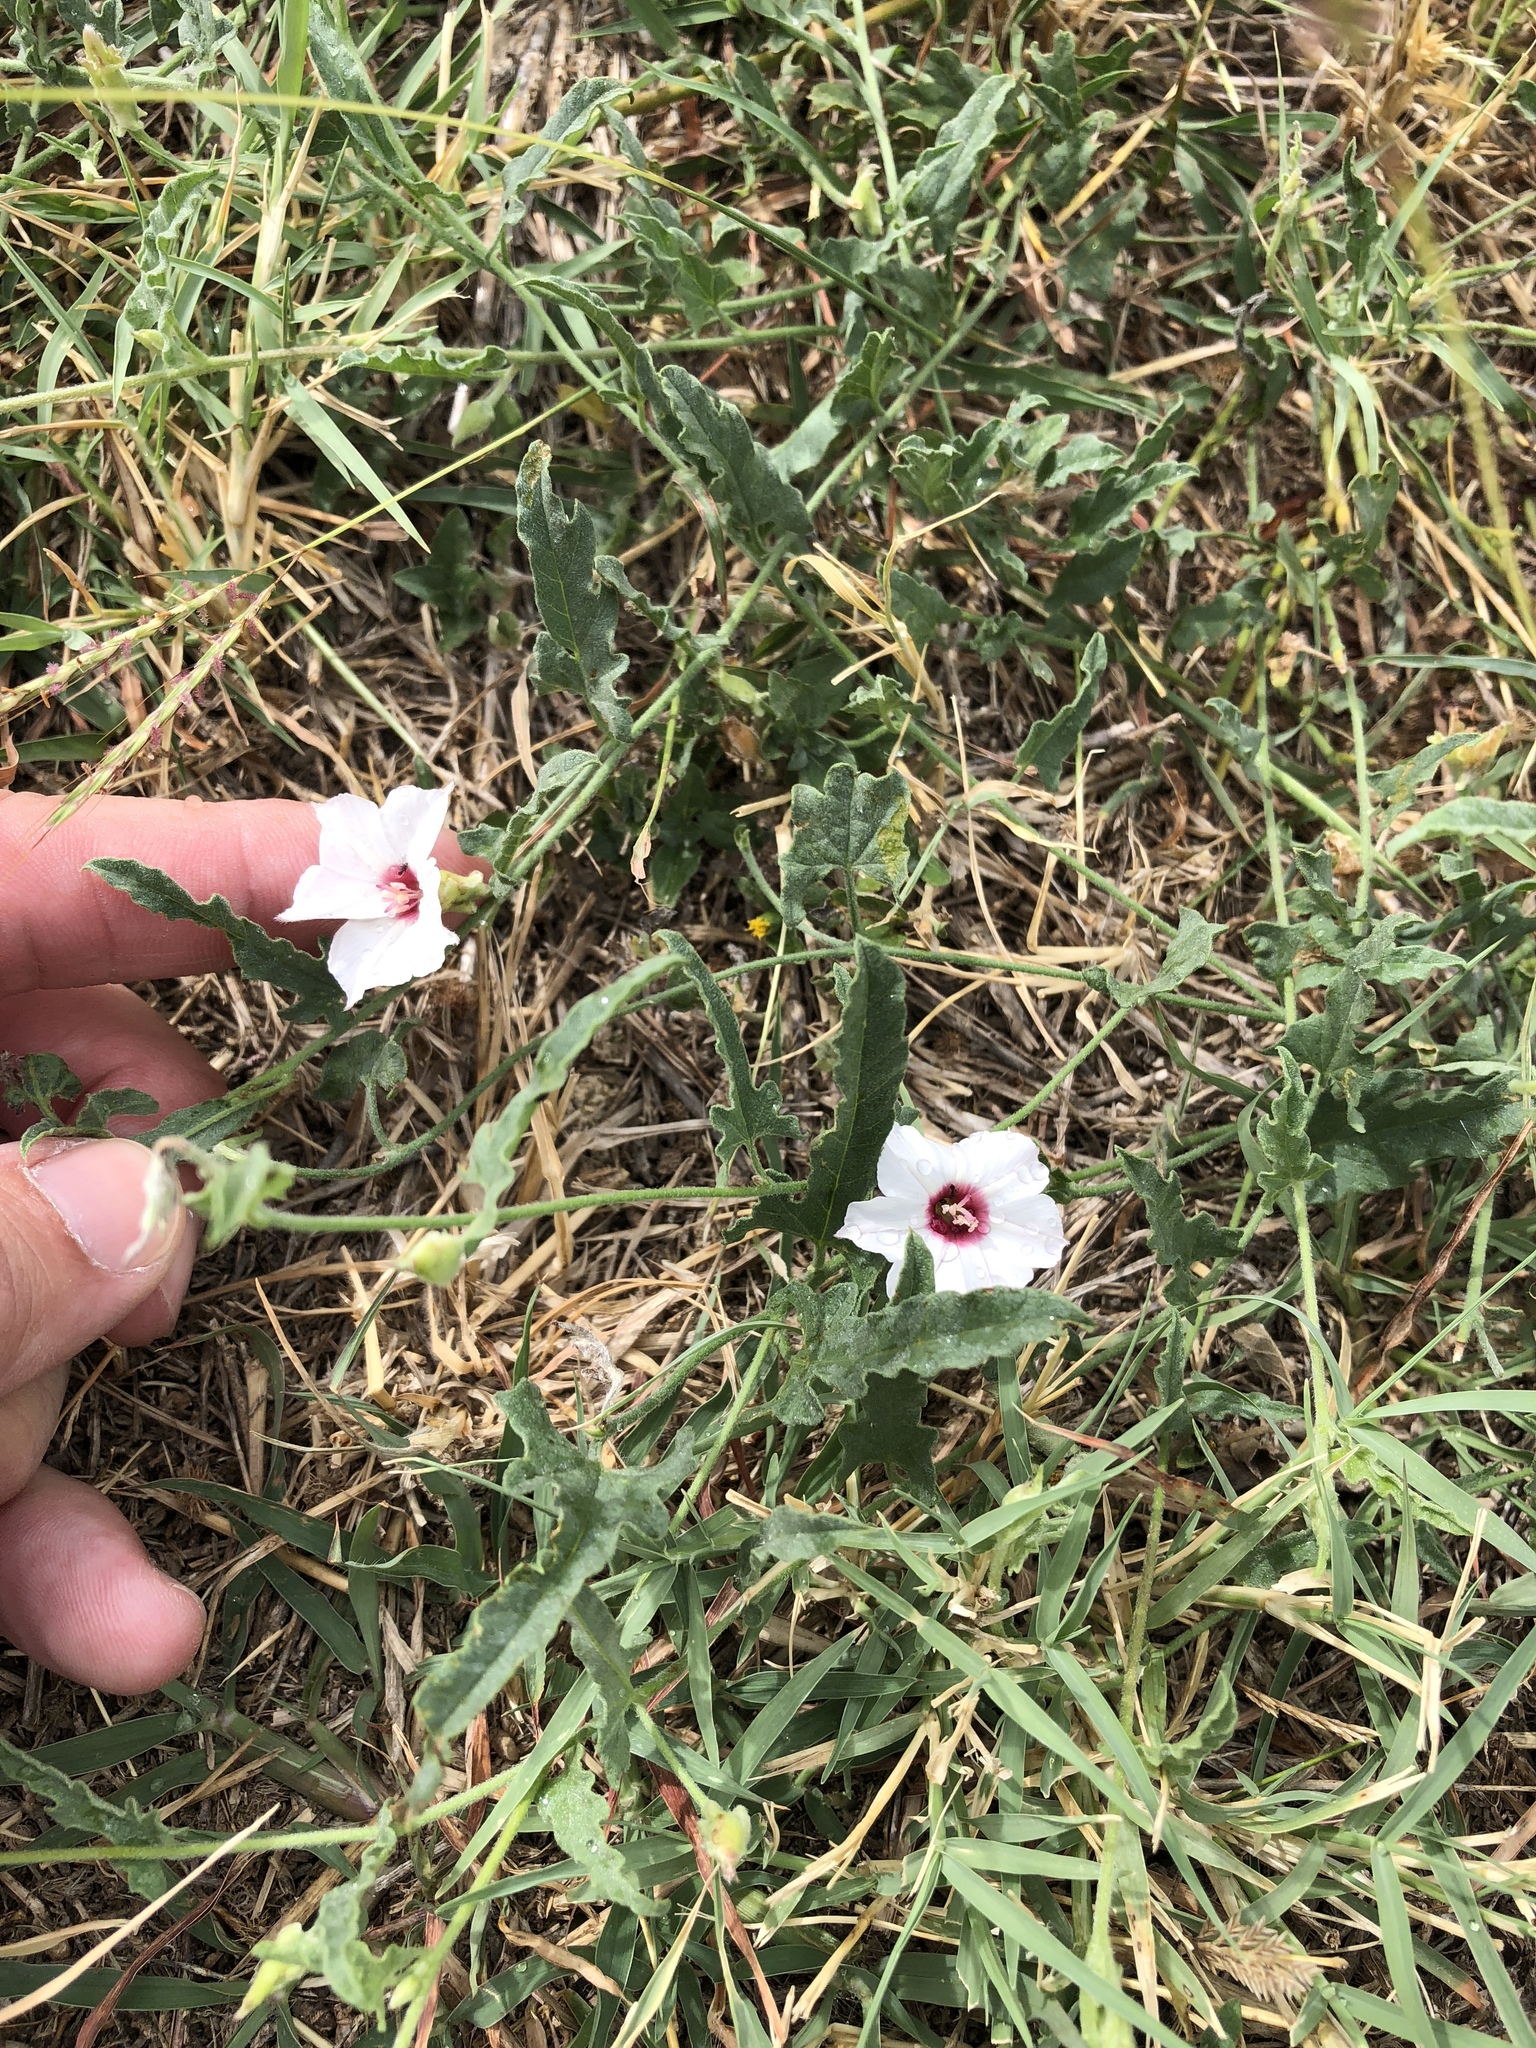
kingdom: Plantae
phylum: Tracheophyta
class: Magnoliopsida
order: Solanales
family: Convolvulaceae
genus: Convolvulus
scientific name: Convolvulus equitans
